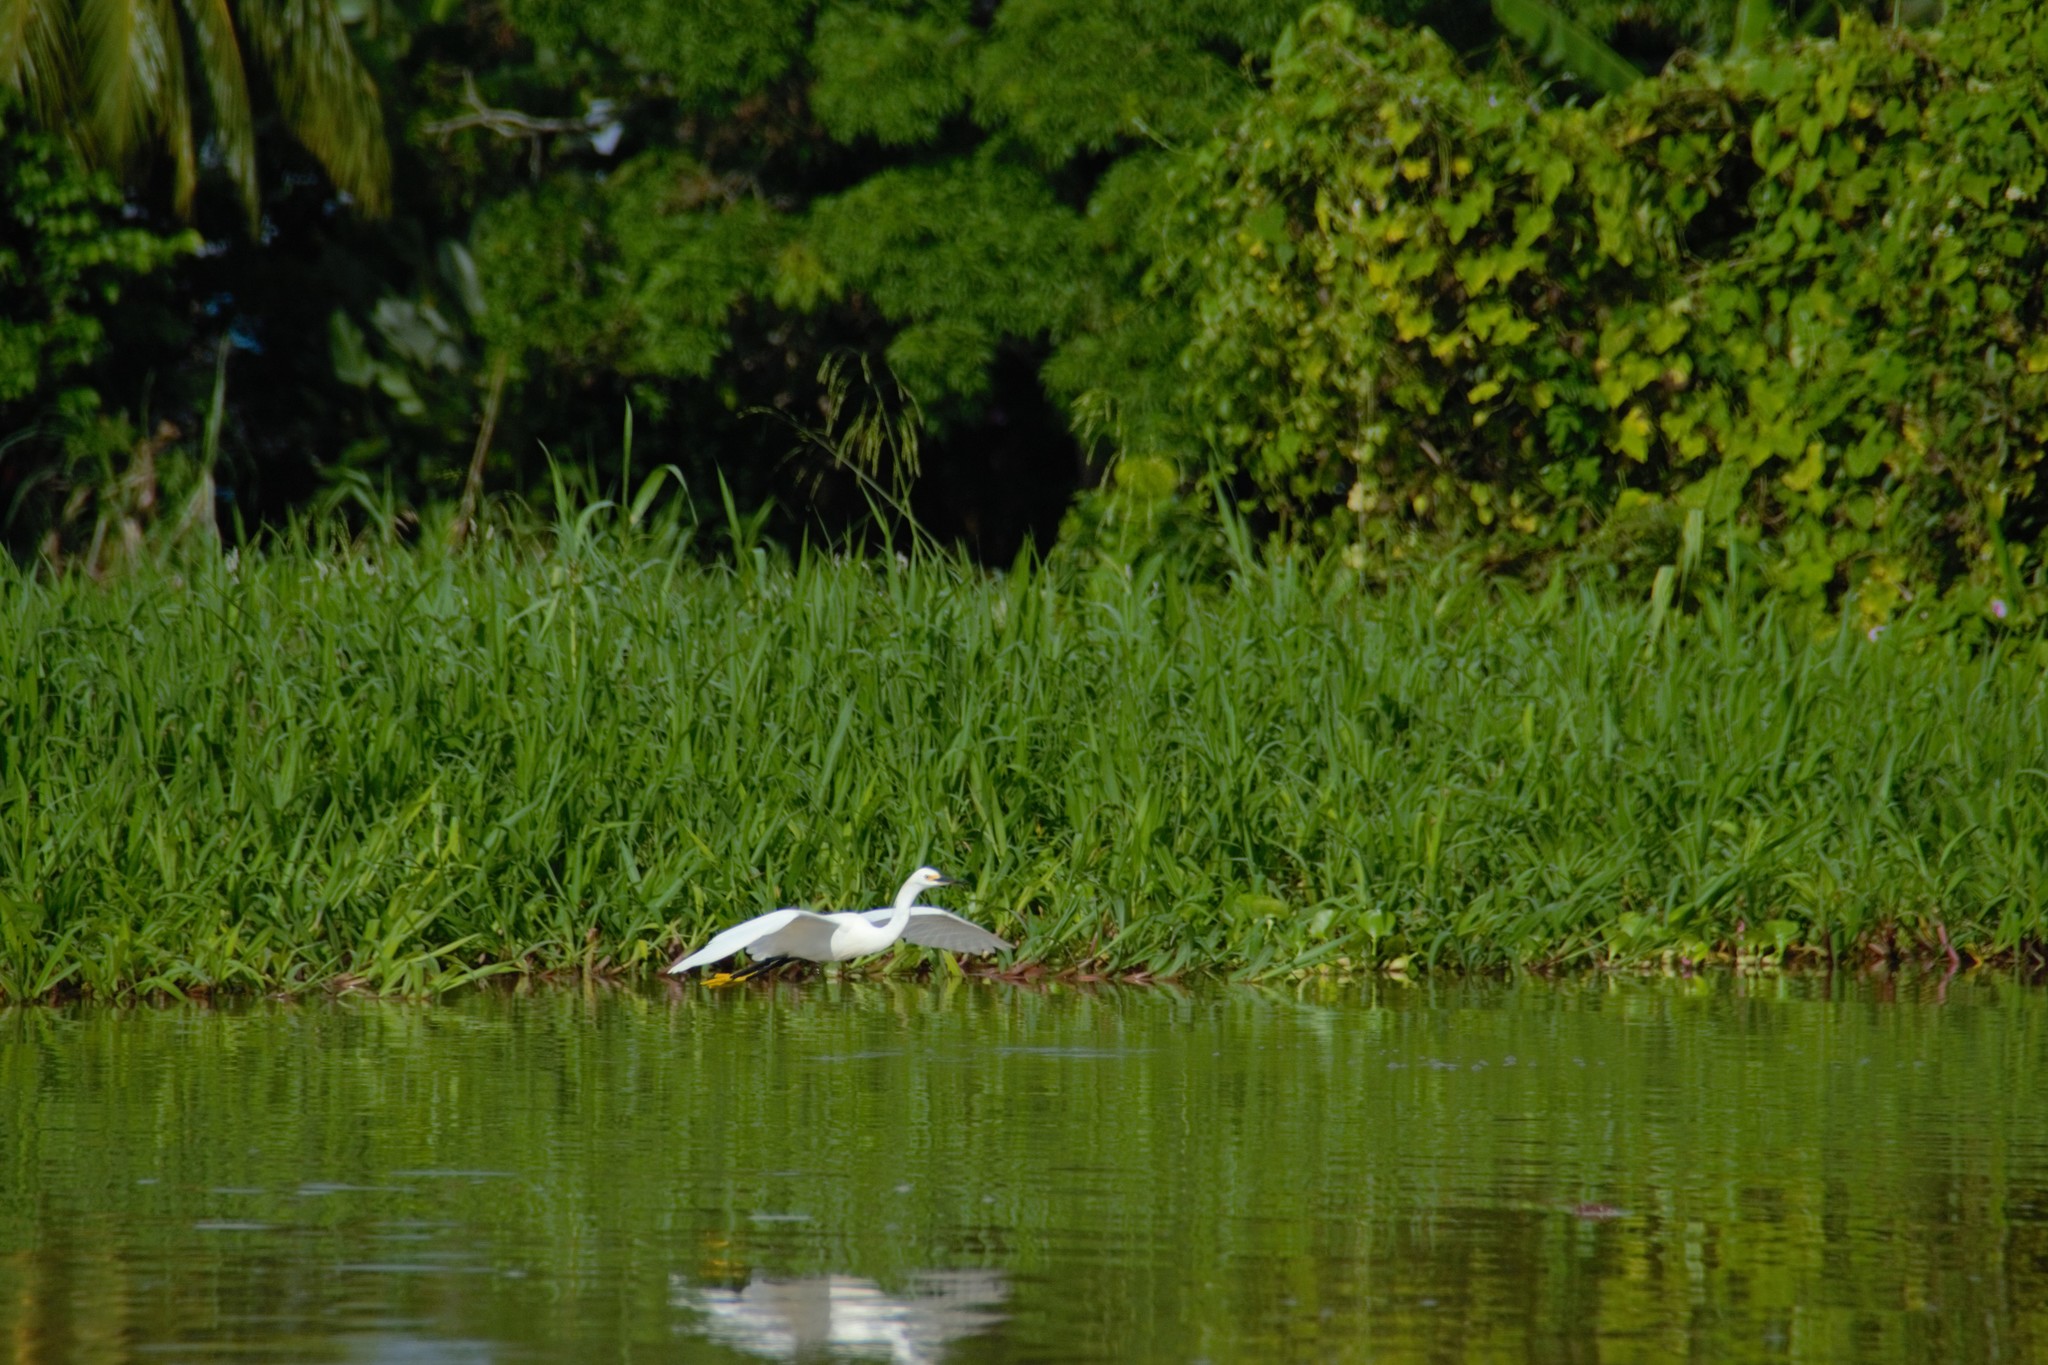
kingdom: Animalia
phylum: Chordata
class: Aves
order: Pelecaniformes
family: Ardeidae
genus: Egretta
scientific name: Egretta thula
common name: Snowy egret
